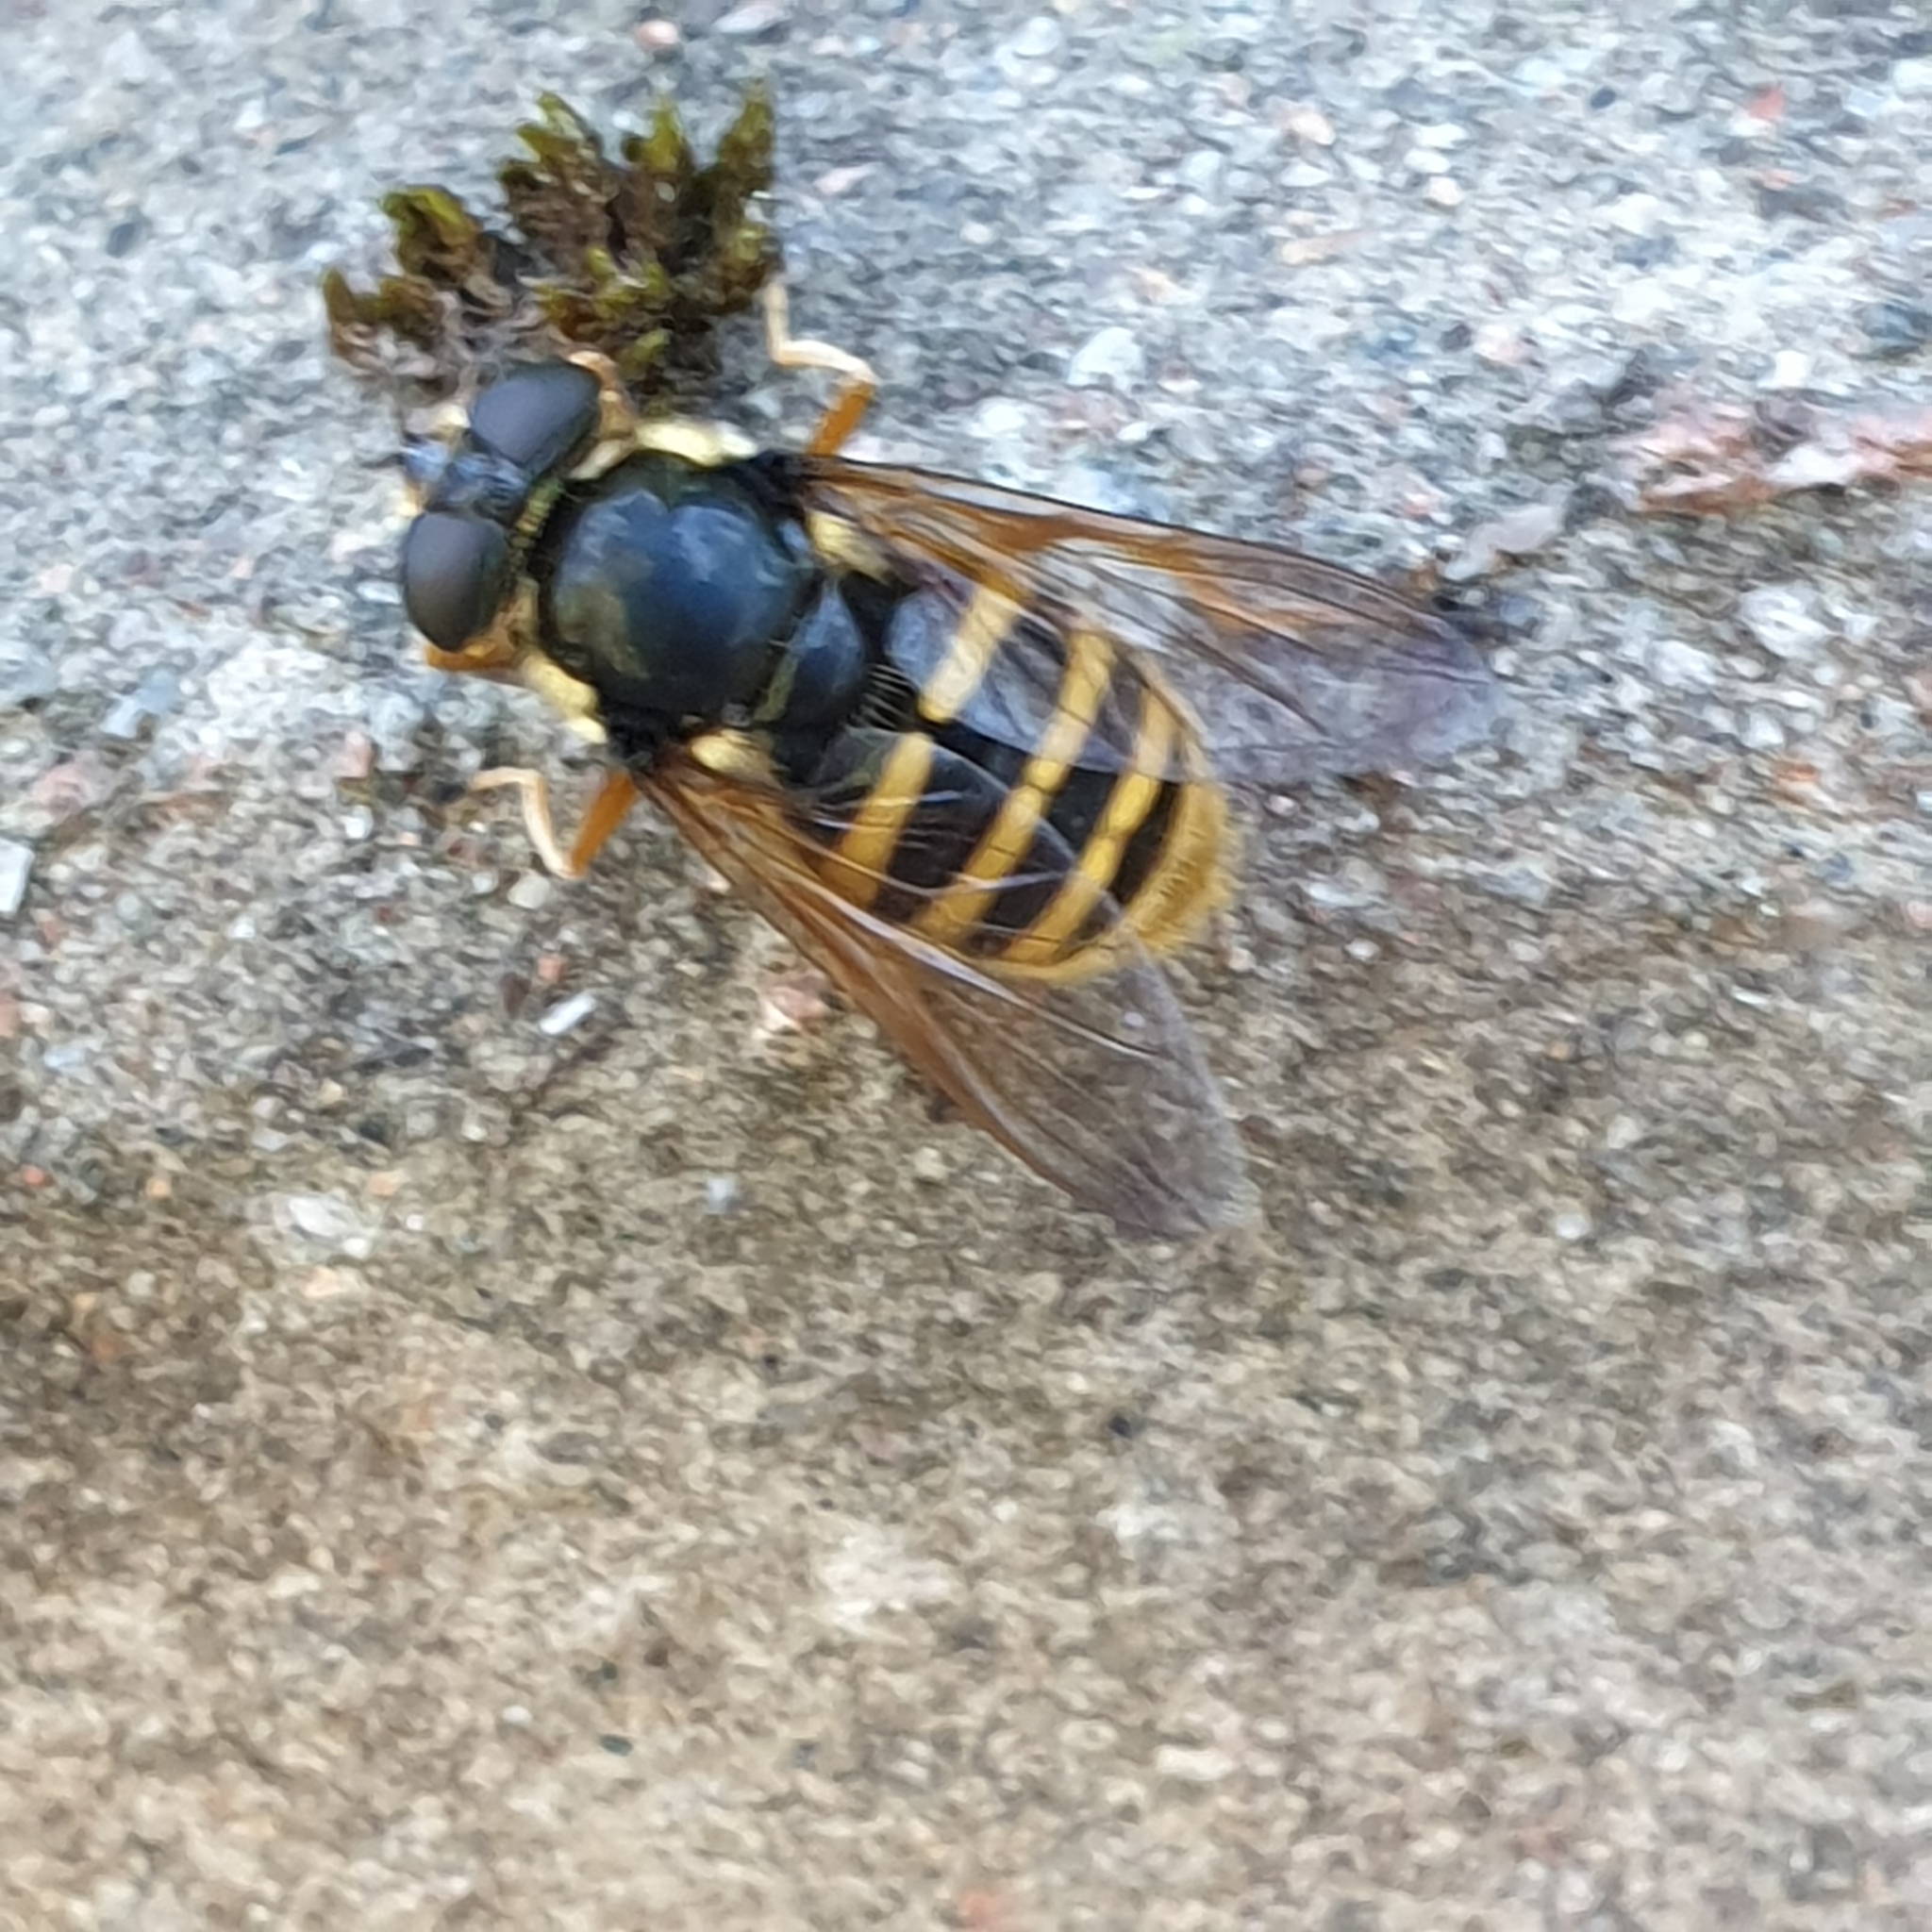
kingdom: Animalia
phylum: Arthropoda
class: Insecta
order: Diptera
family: Syrphidae
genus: Sericomyia
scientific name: Sericomyia silentis
